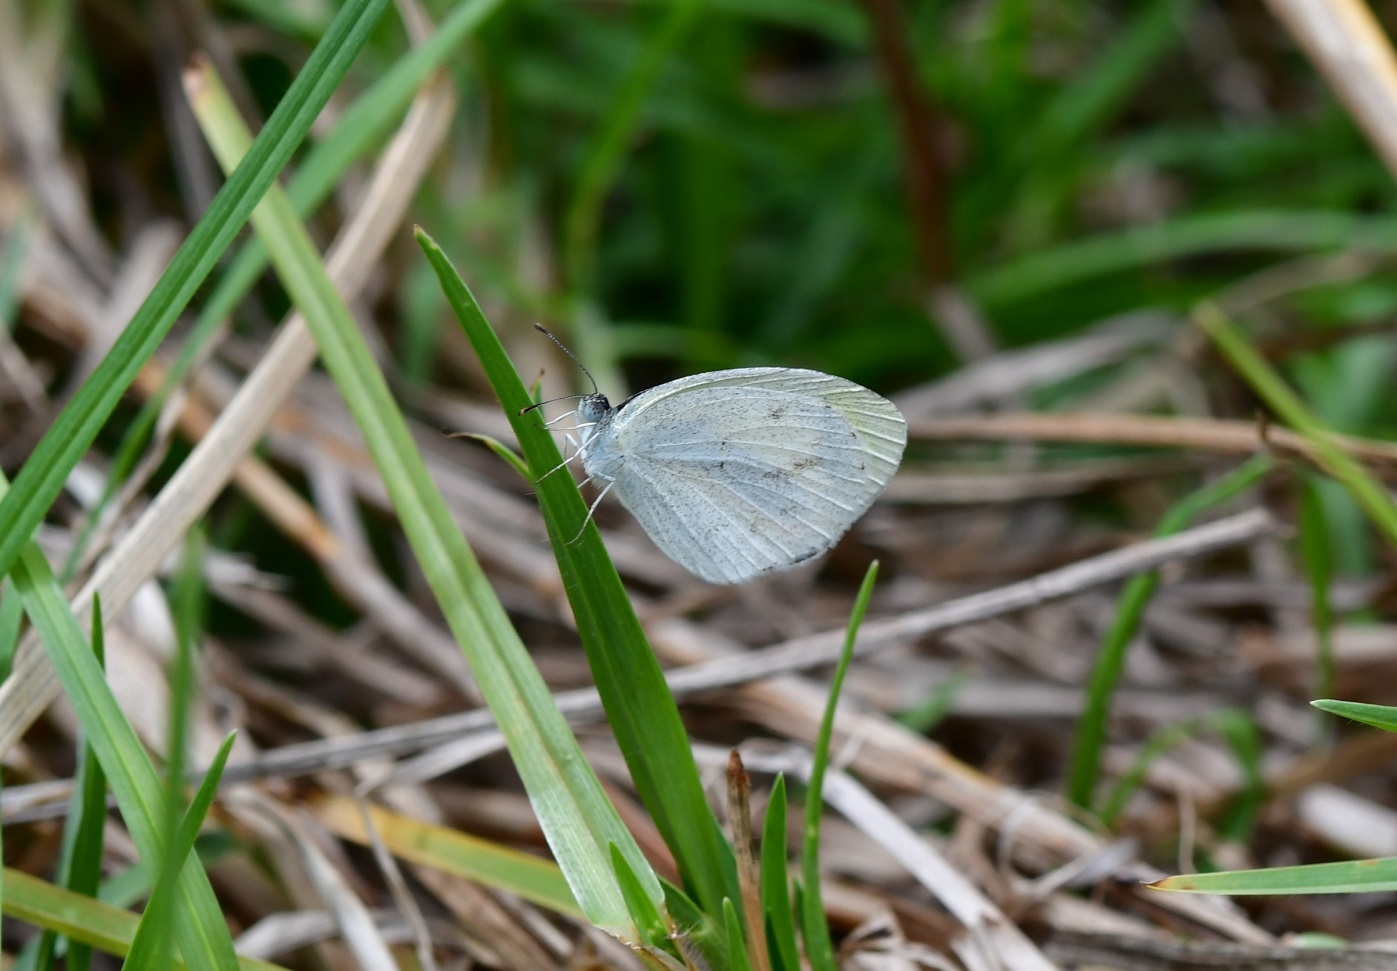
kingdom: Animalia
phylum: Arthropoda
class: Insecta
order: Lepidoptera
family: Pieridae
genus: Eurema
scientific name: Eurema daira
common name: Barred sulphur
